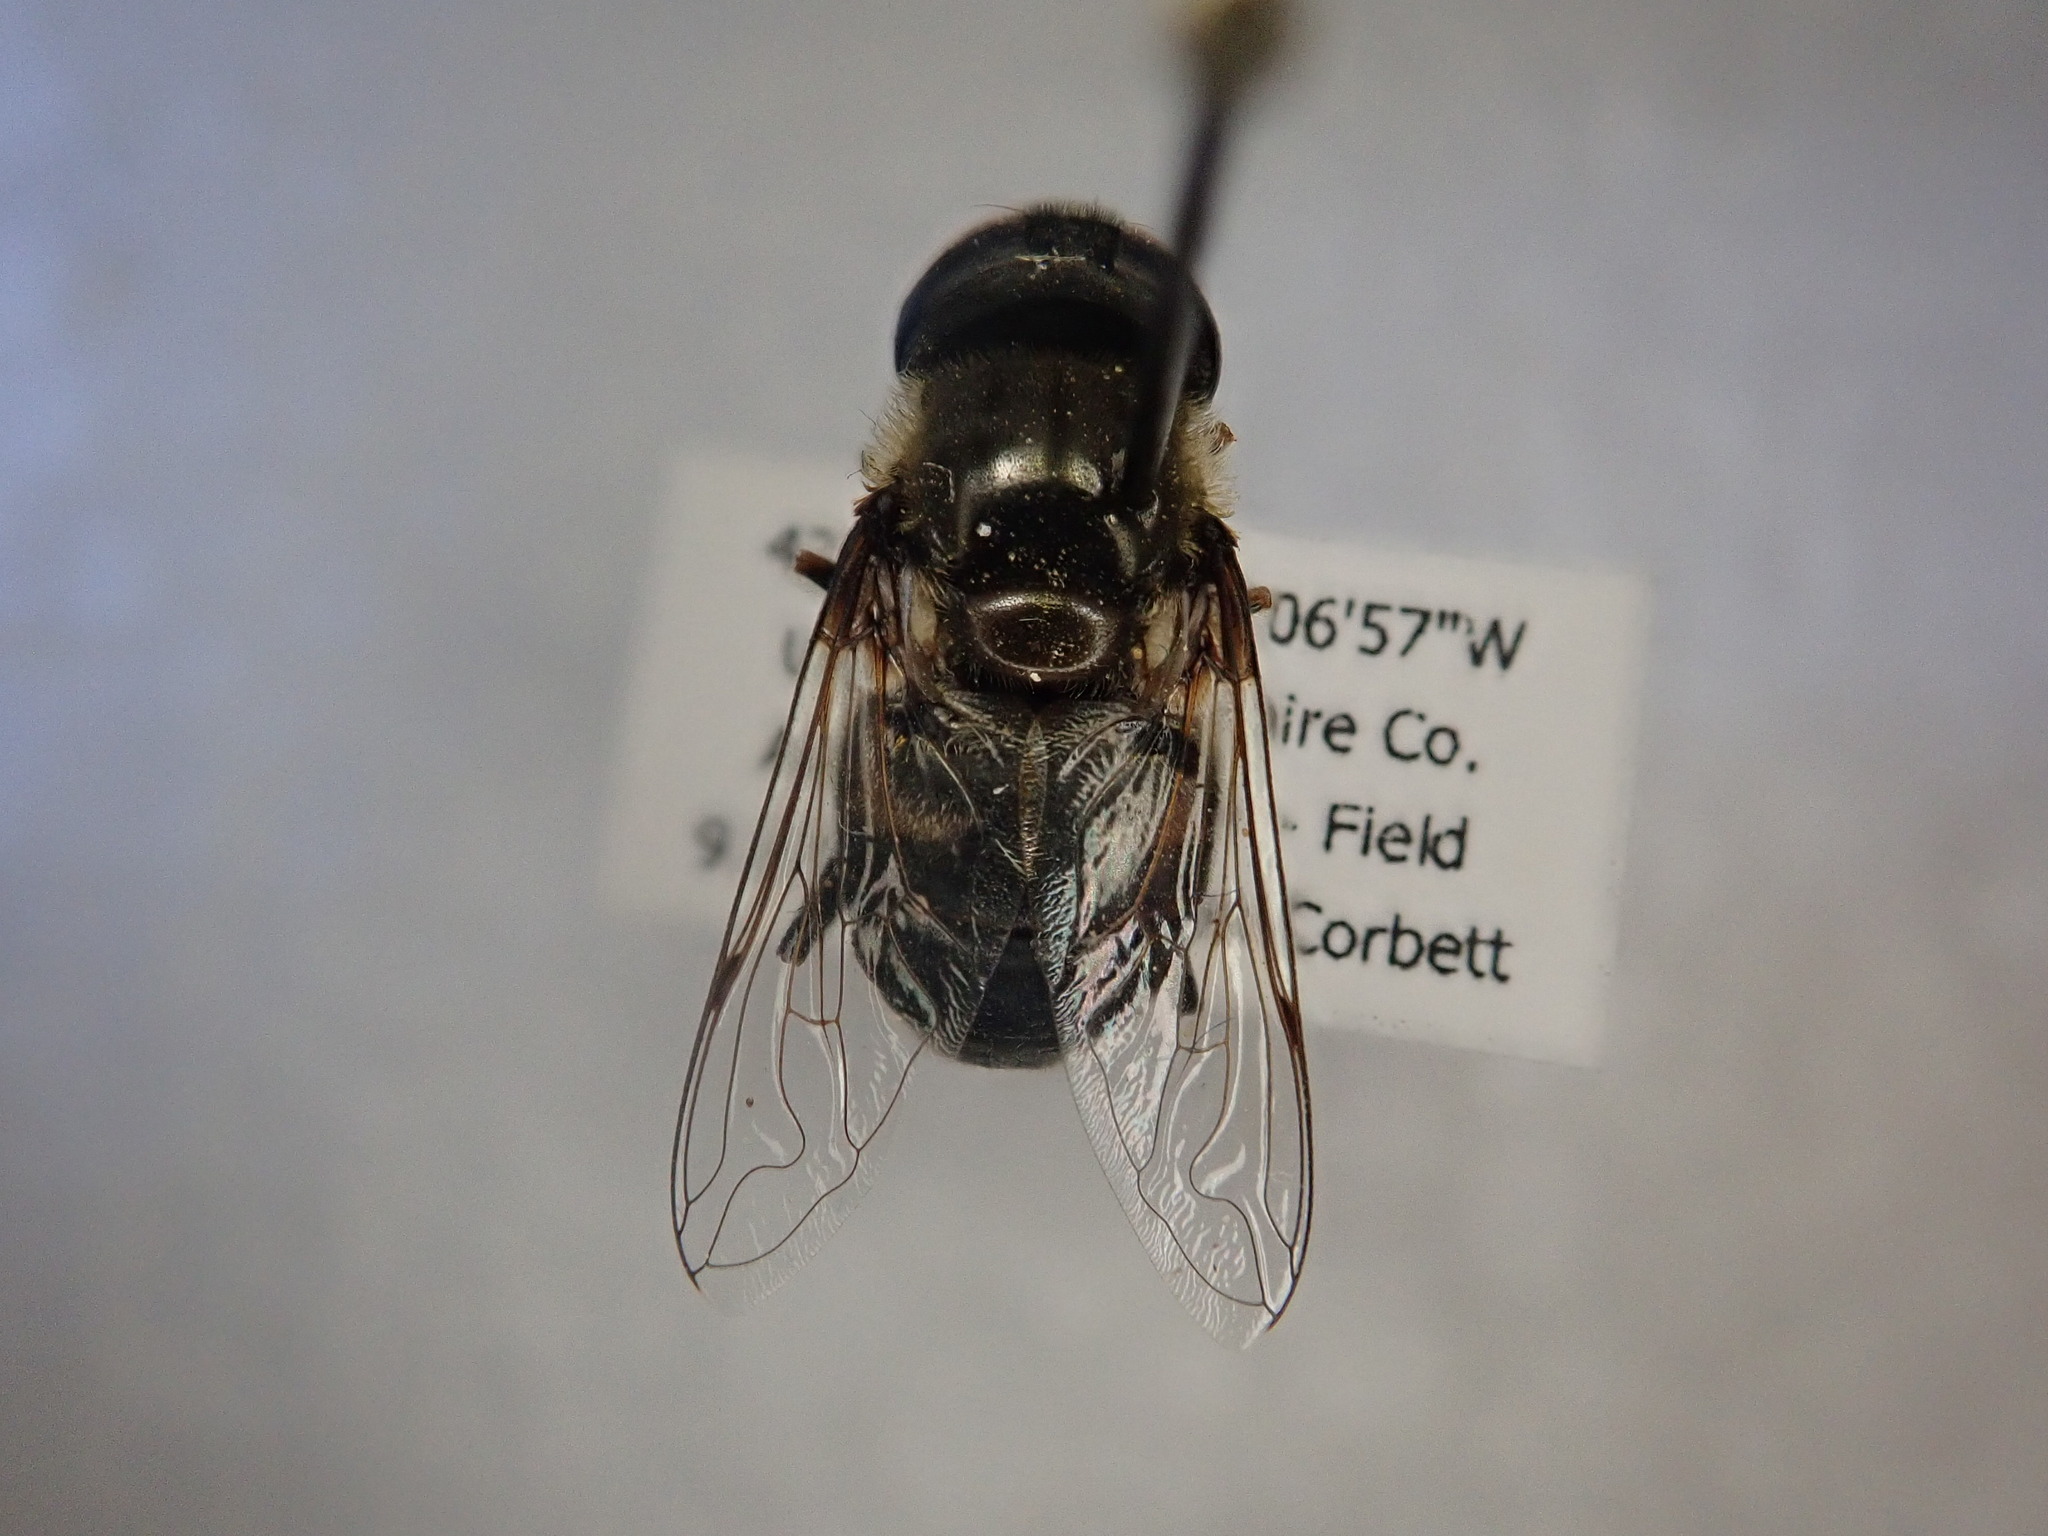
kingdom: Animalia
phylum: Arthropoda
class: Insecta
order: Diptera
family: Syrphidae
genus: Eristalis
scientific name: Eristalis dimidiata
